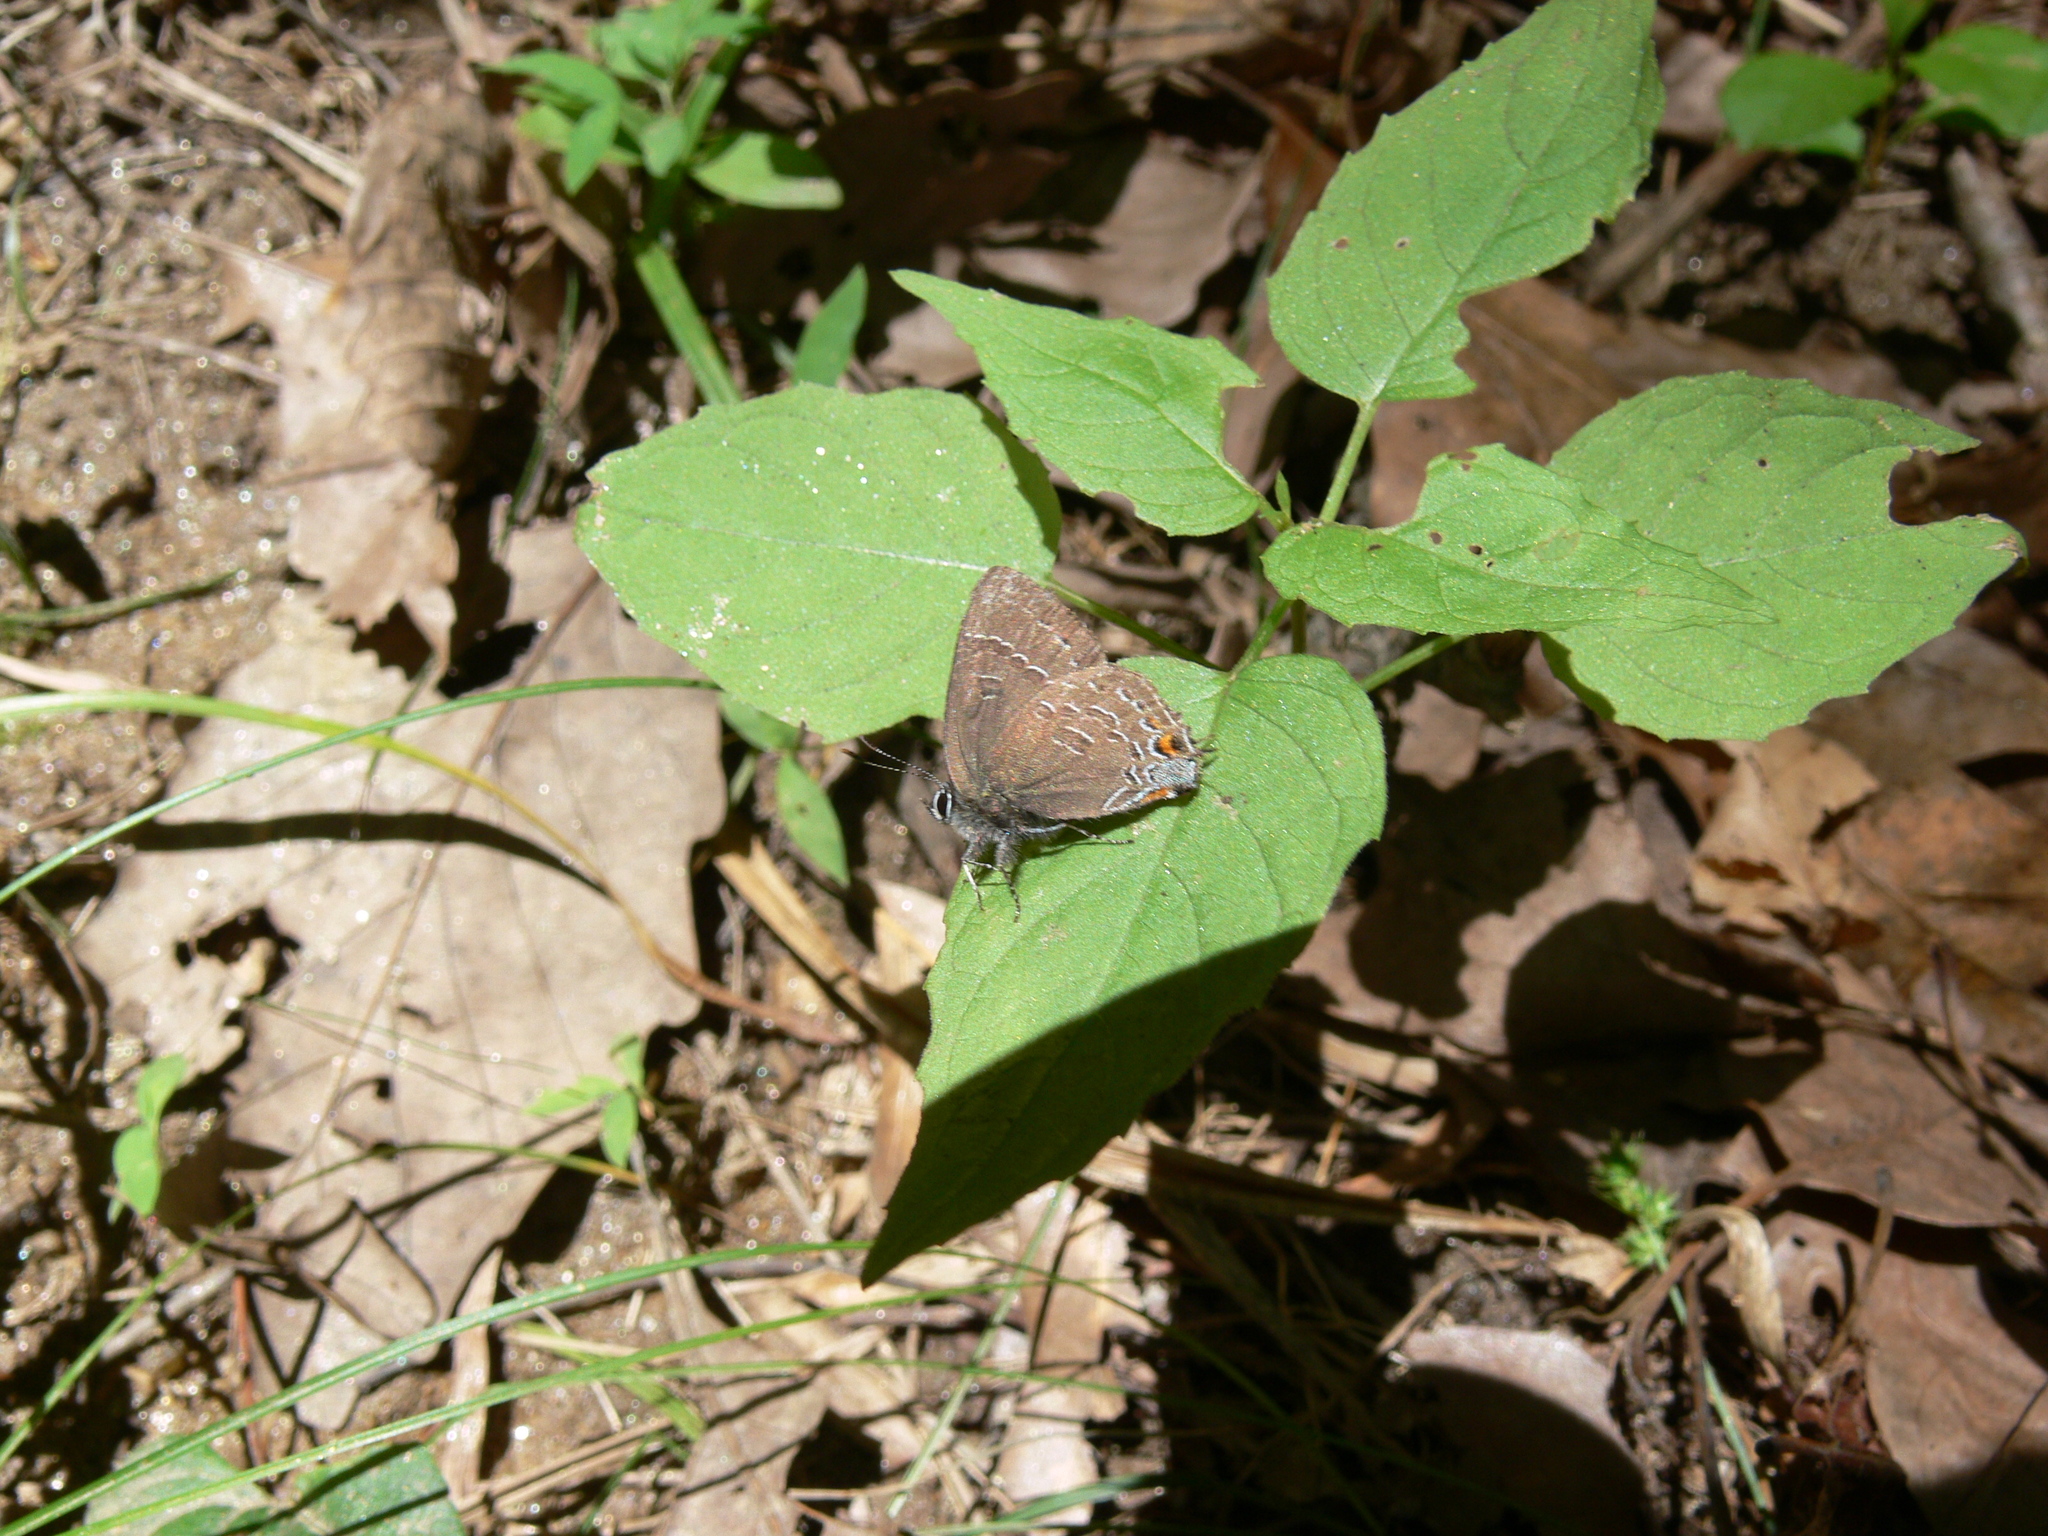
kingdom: Animalia
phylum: Arthropoda
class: Insecta
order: Lepidoptera
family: Lycaenidae
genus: Satyrium
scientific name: Satyrium calanus
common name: Banded hairstreak
